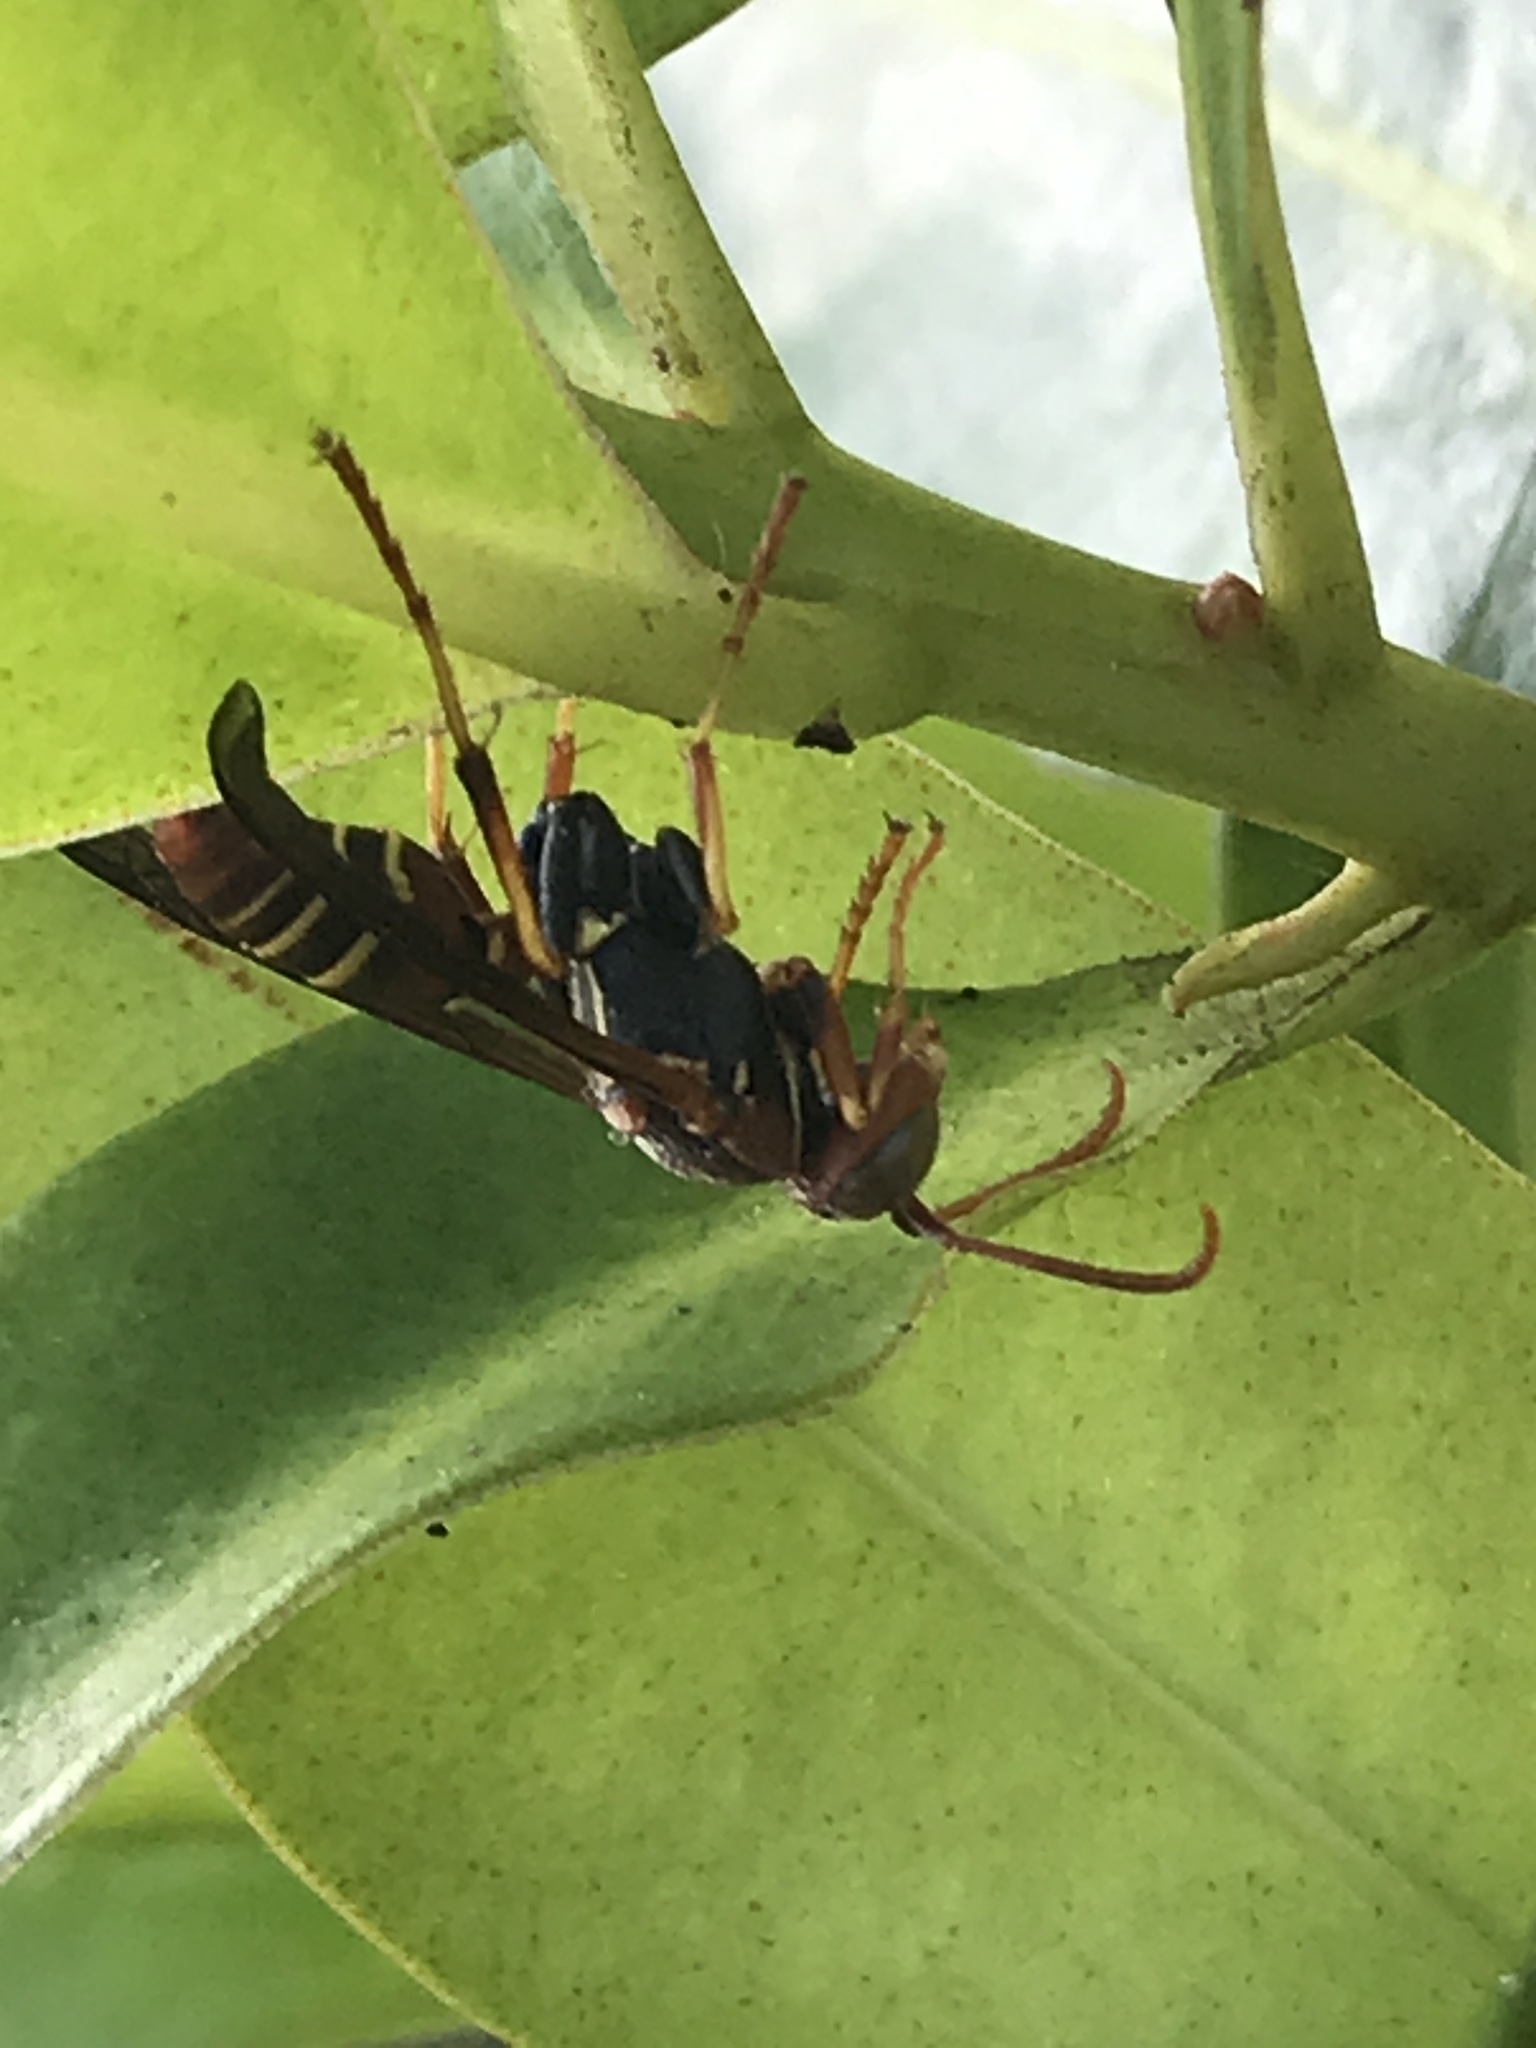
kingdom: Animalia
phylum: Arthropoda
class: Insecta
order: Hymenoptera
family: Eumenidae
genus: Polistes
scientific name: Polistes dorsalis
